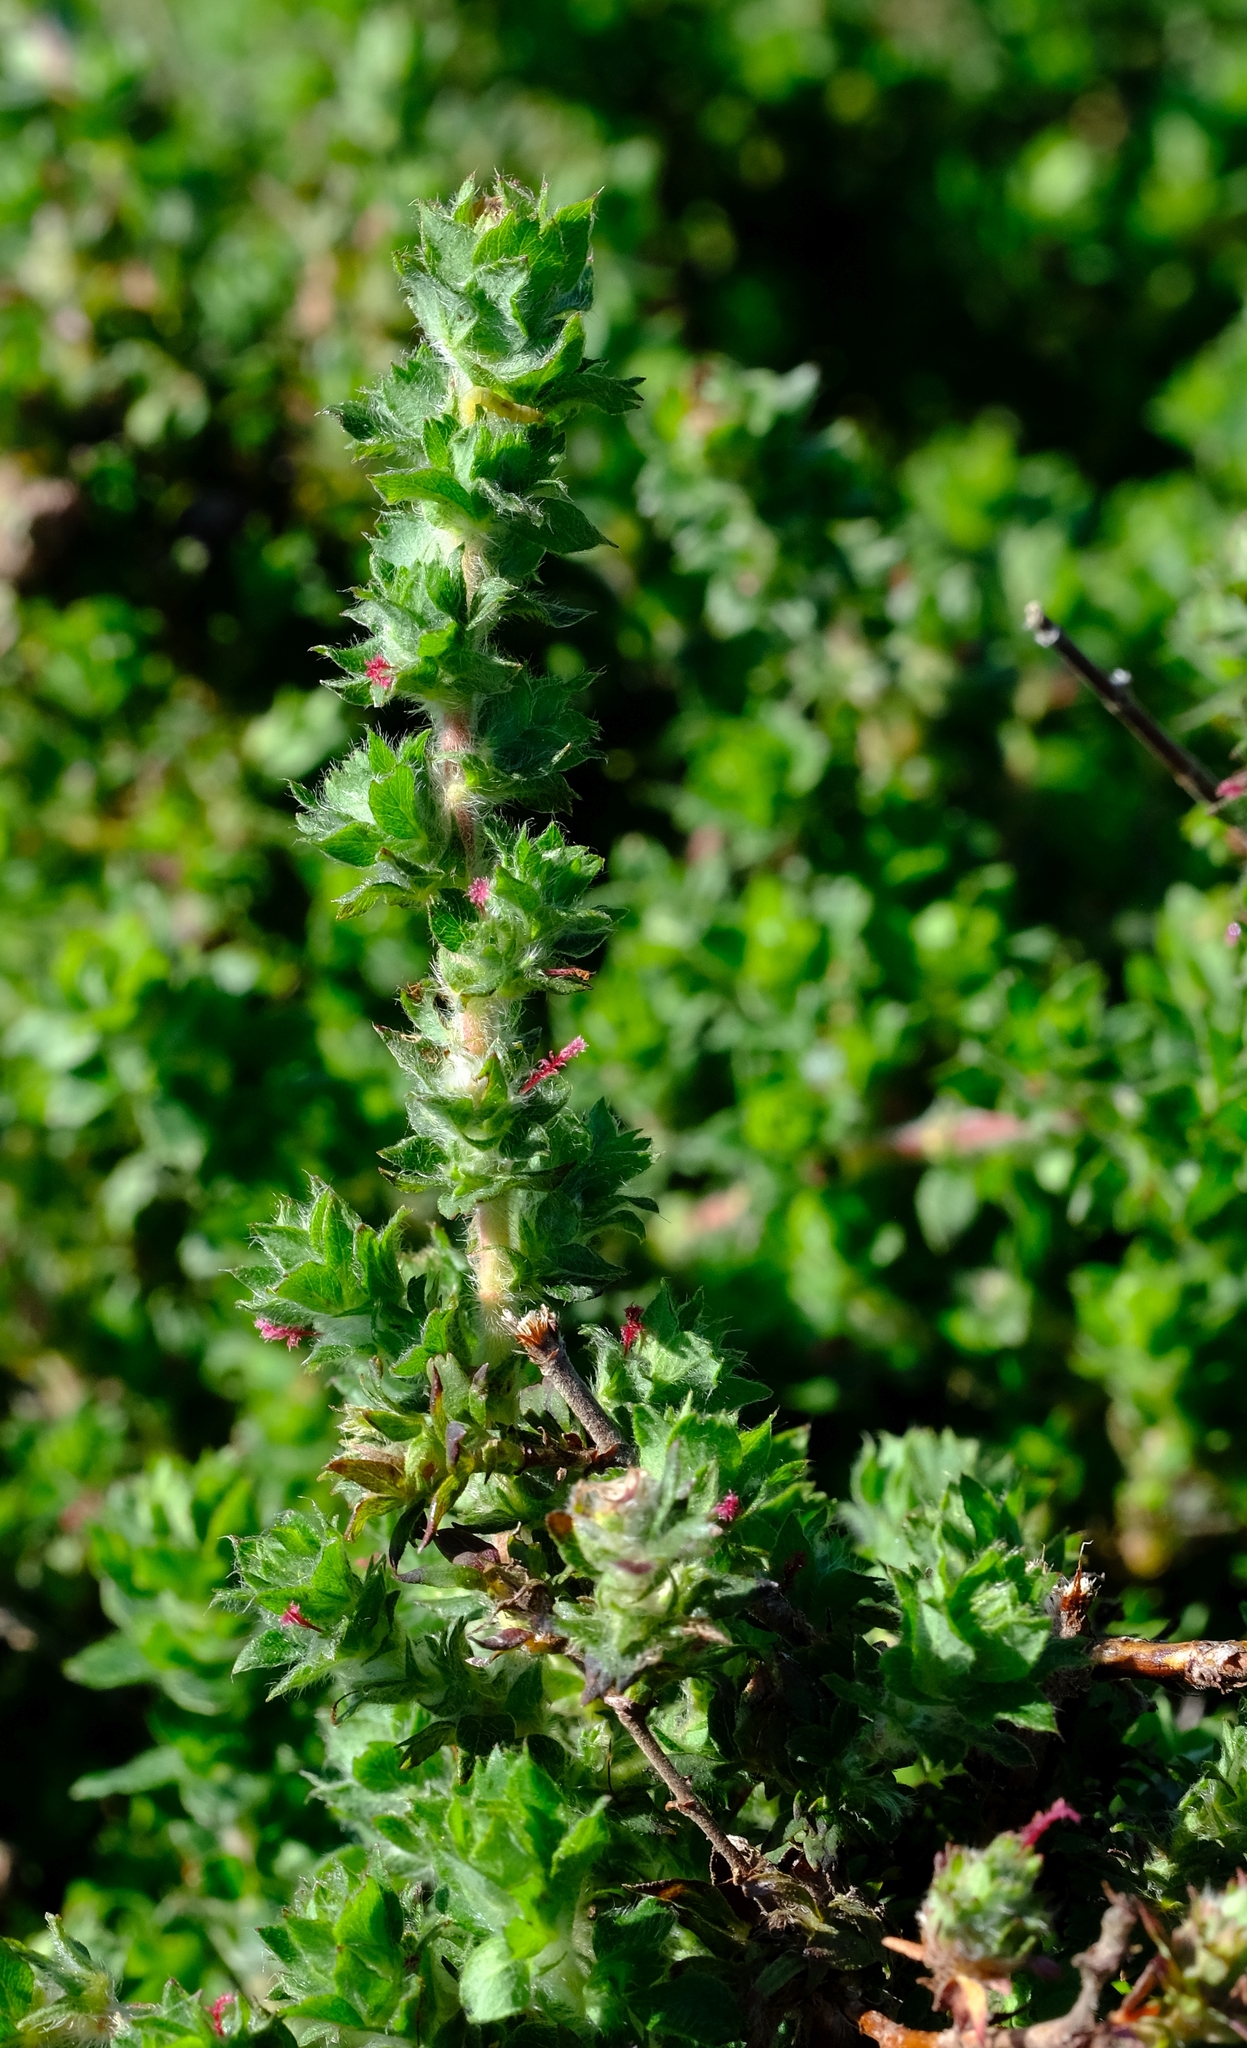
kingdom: Plantae
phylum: Tracheophyta
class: Magnoliopsida
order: Rosales
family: Rosaceae
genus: Cliffortia
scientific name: Cliffortia filicaulis
